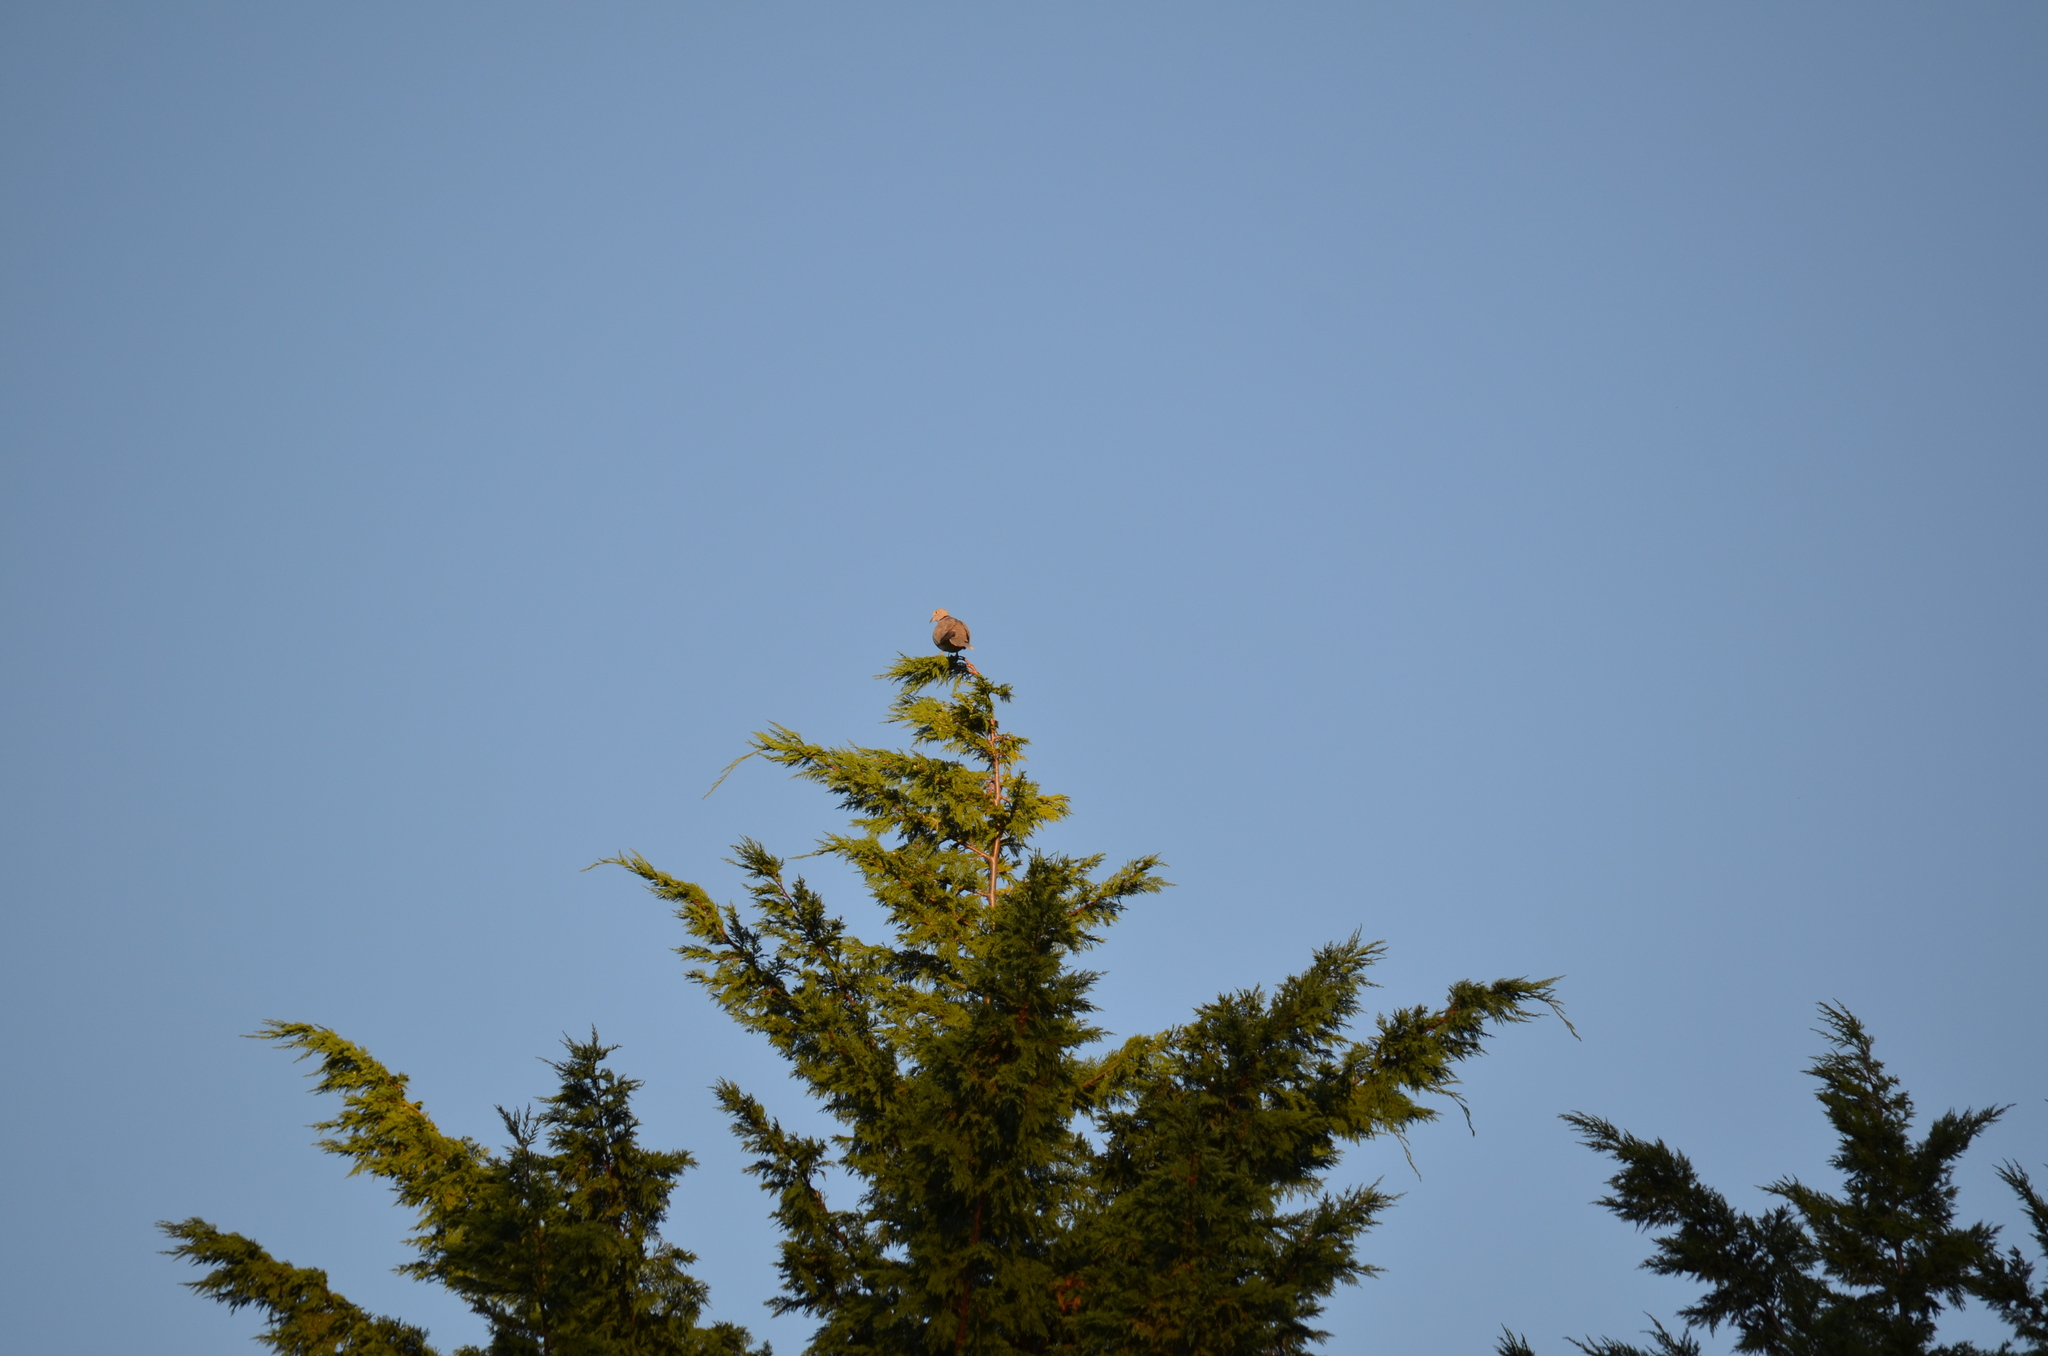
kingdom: Animalia
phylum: Chordata
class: Aves
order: Columbiformes
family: Columbidae
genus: Streptopelia
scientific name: Streptopelia decaocto
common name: Eurasian collared dove
